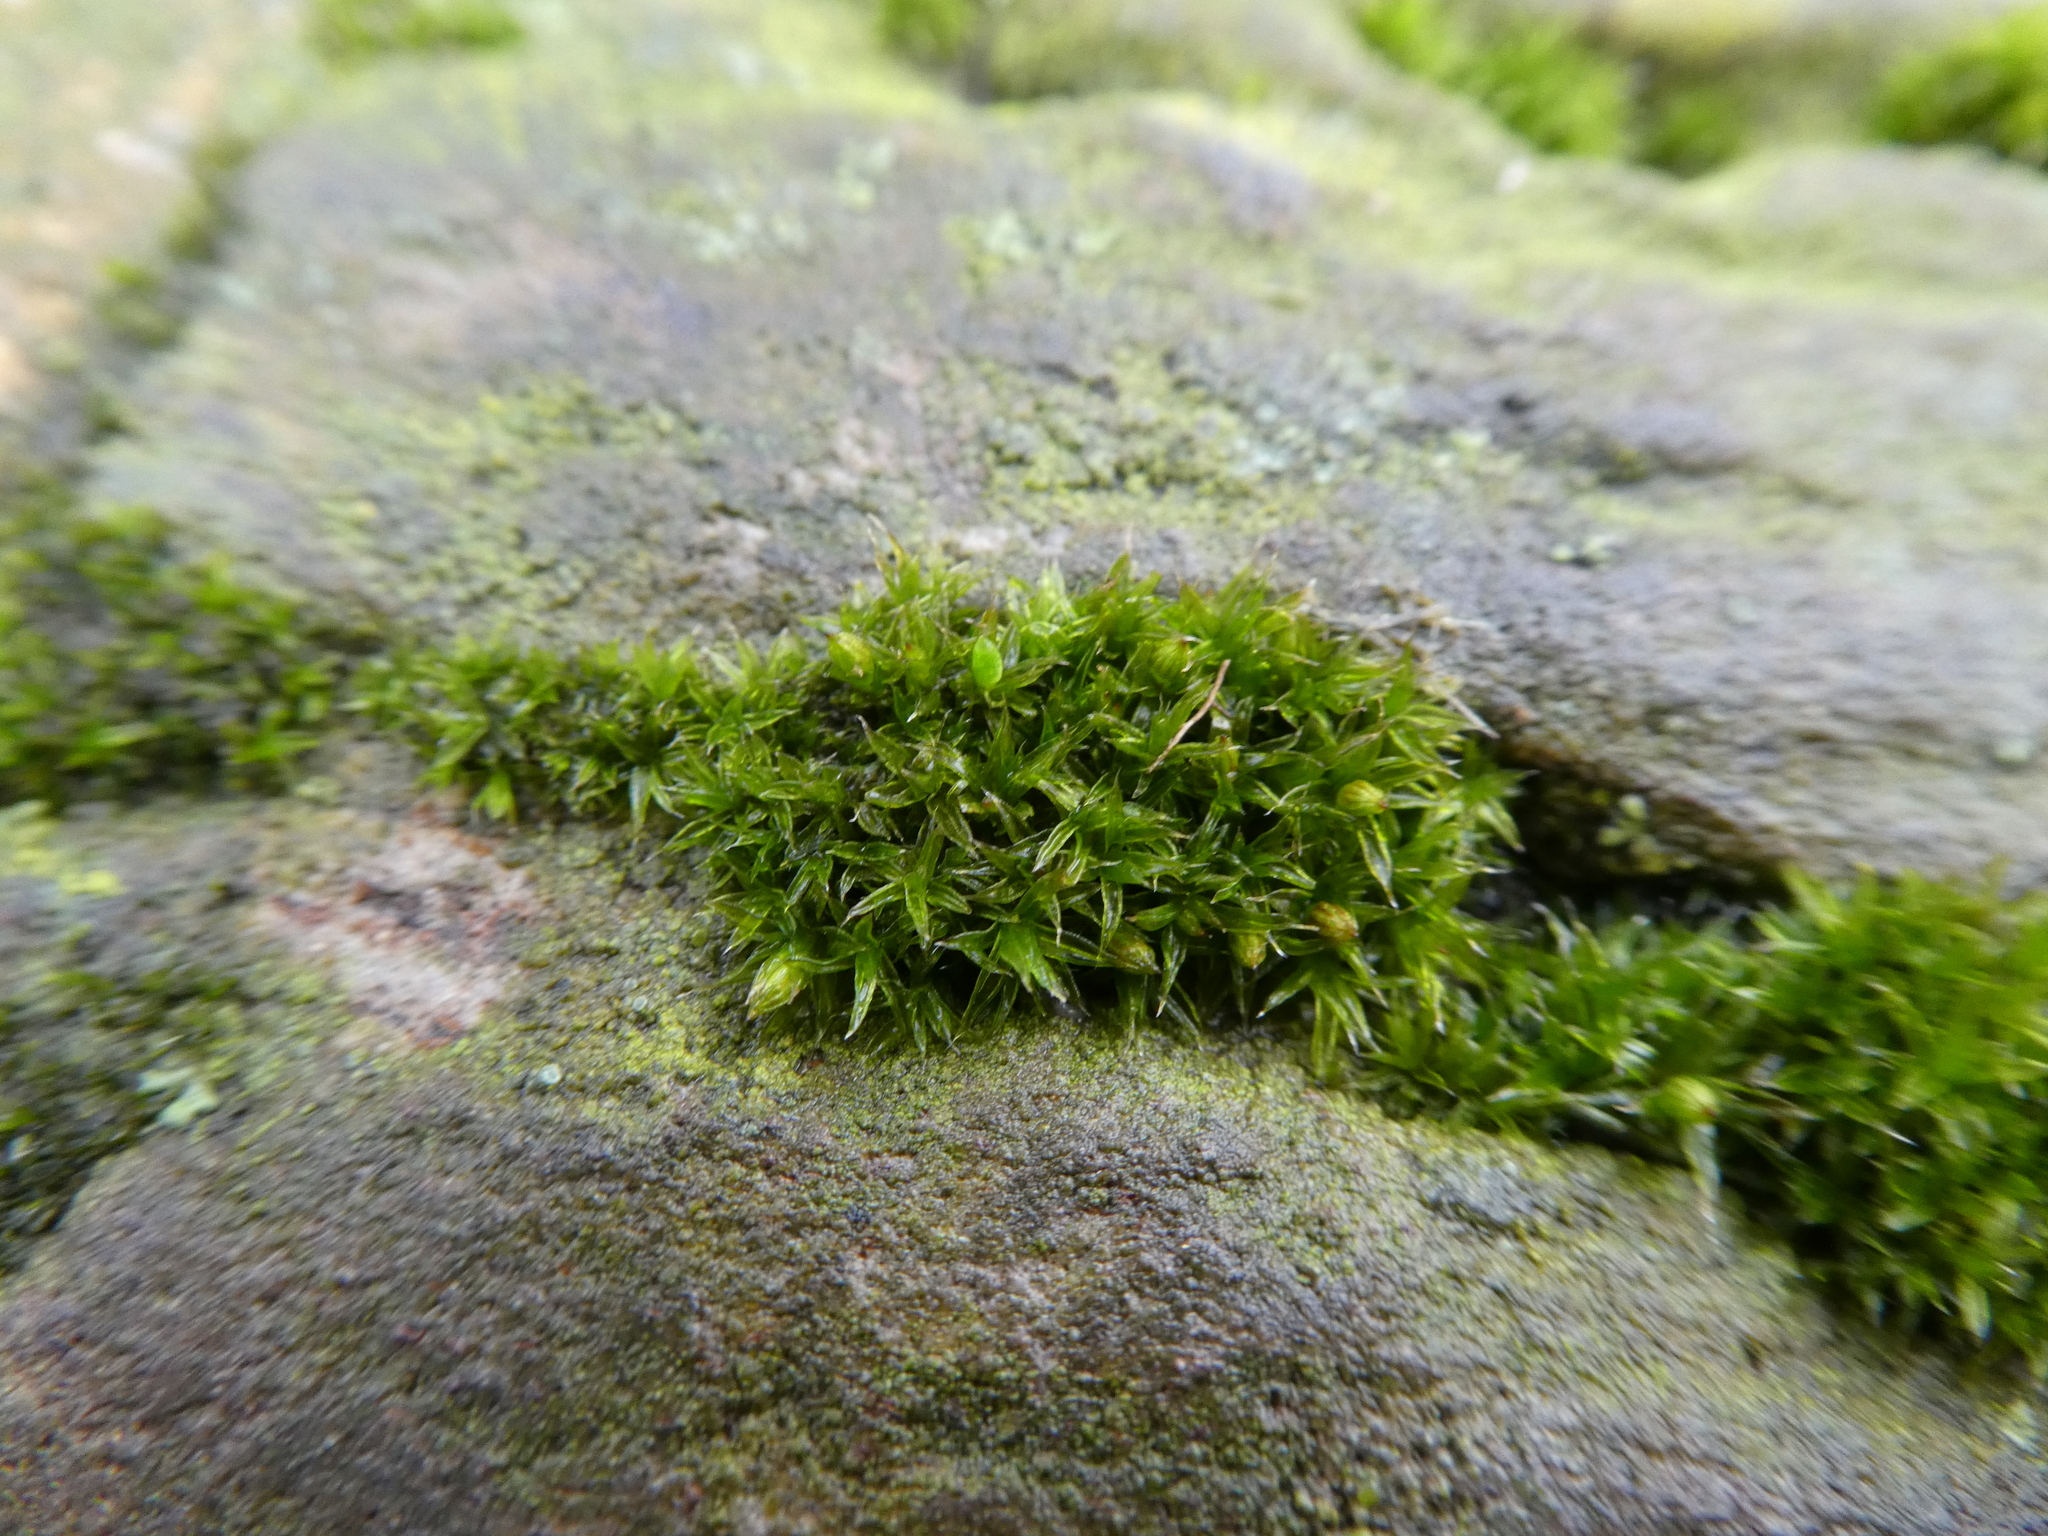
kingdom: Plantae
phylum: Bryophyta
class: Bryopsida
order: Orthotrichales
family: Orthotrichaceae
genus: Orthotrichum
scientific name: Orthotrichum diaphanum
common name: White-tipped bristle-moss
